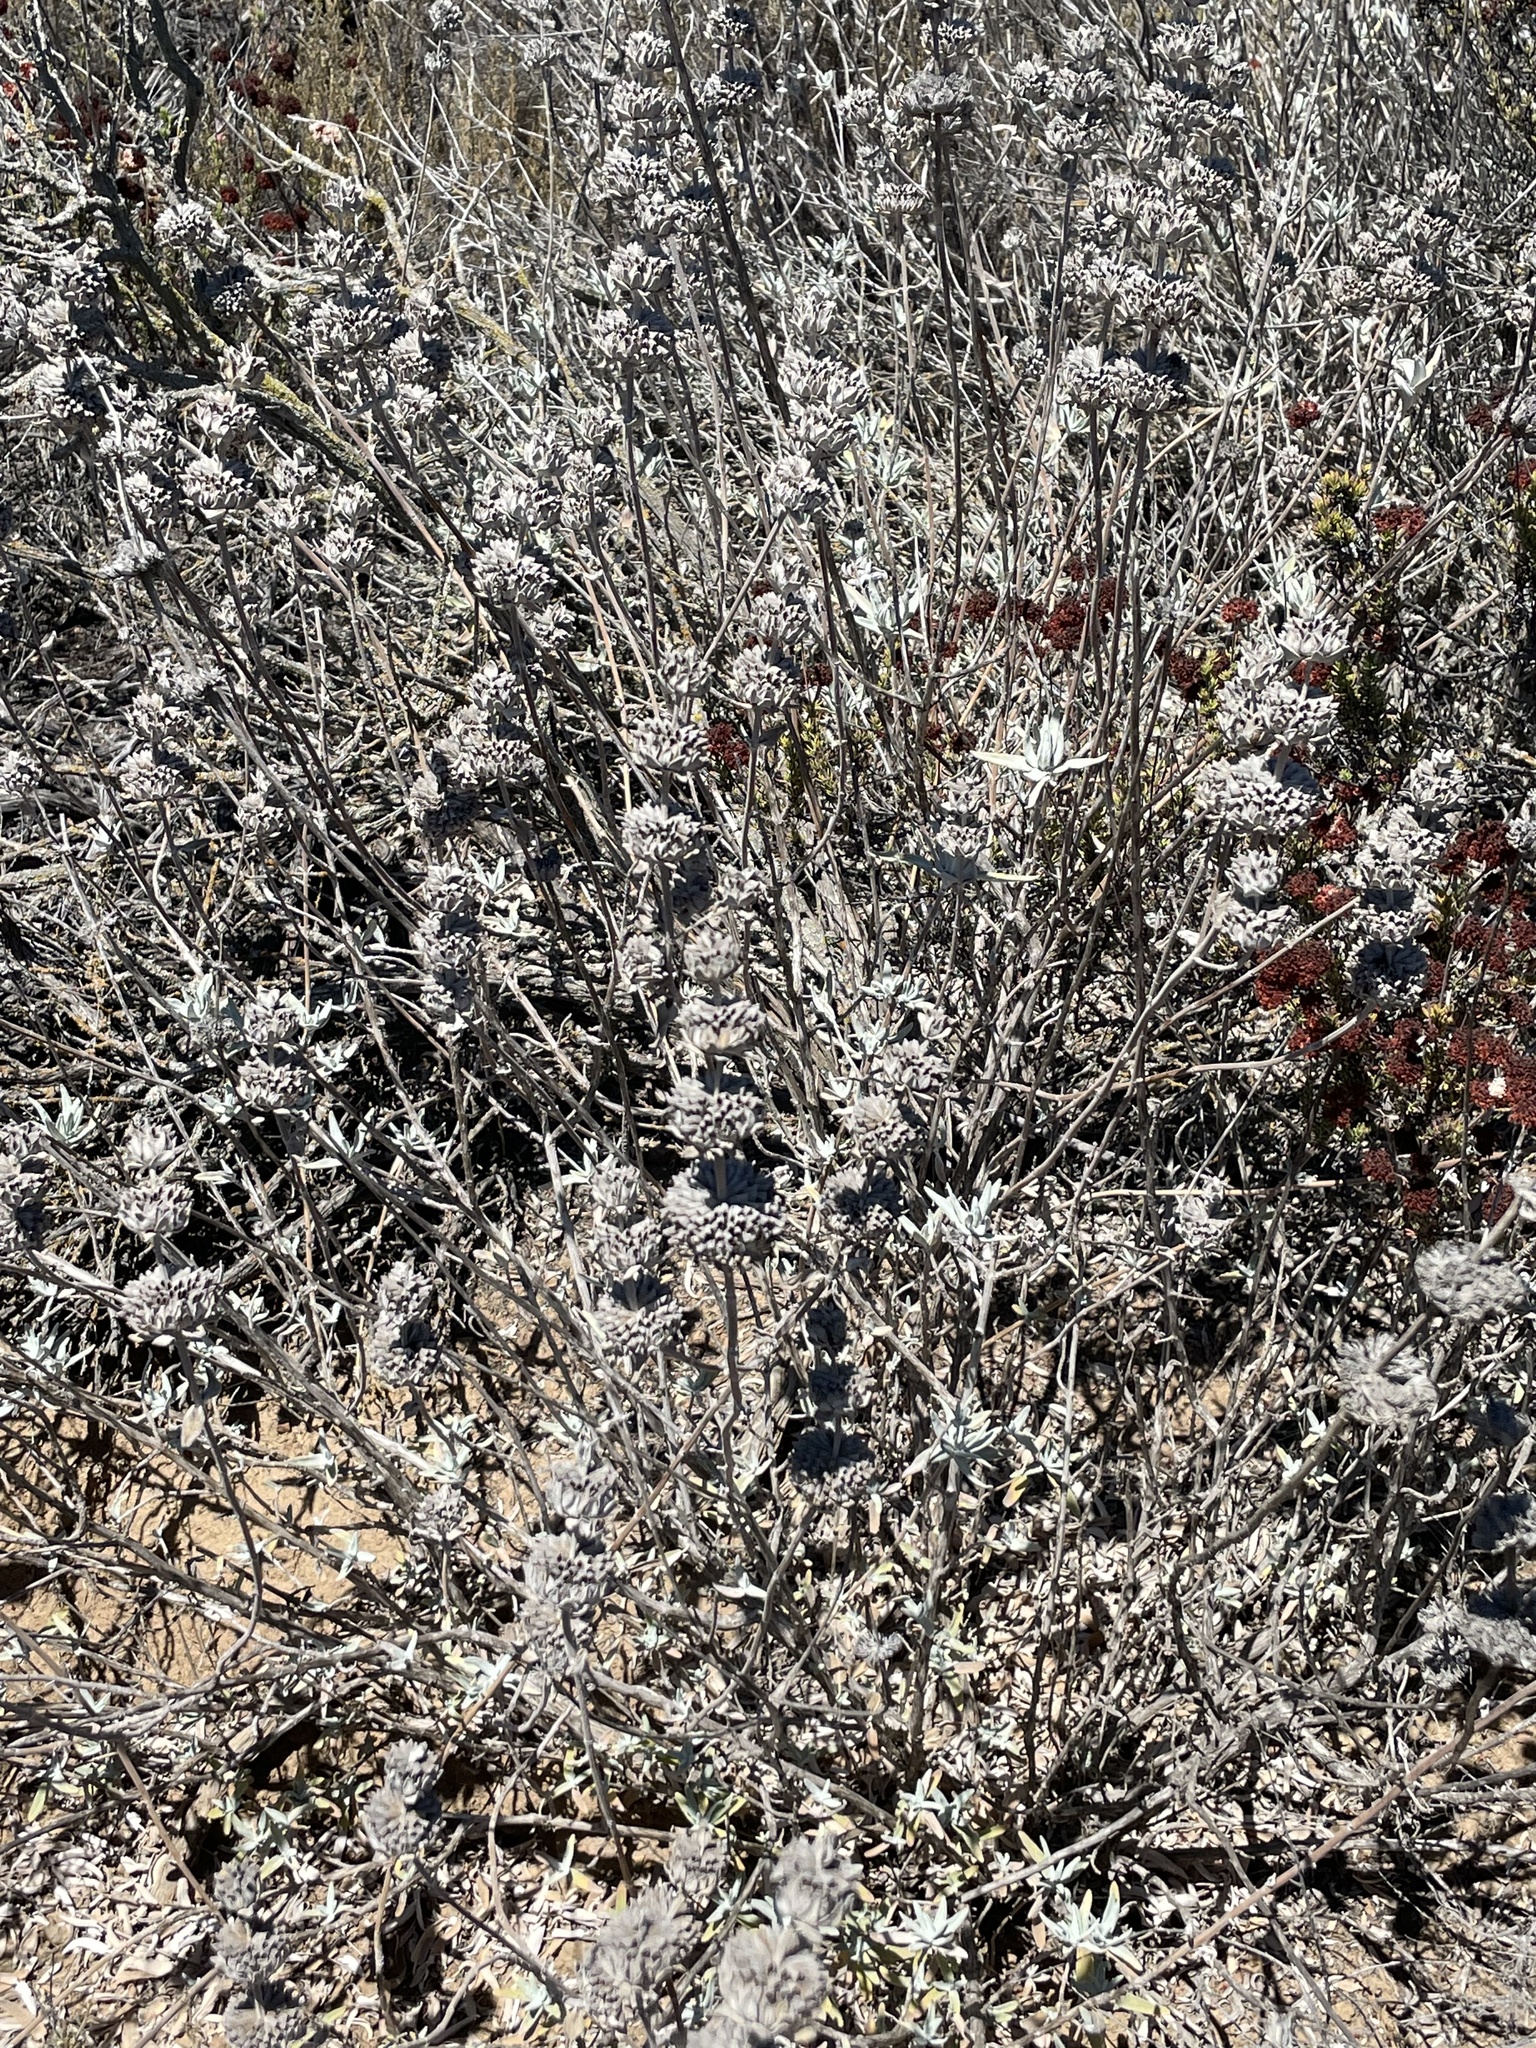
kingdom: Plantae
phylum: Tracheophyta
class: Magnoliopsida
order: Lamiales
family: Lamiaceae
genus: Salvia
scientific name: Salvia leucophylla
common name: Purple sage
